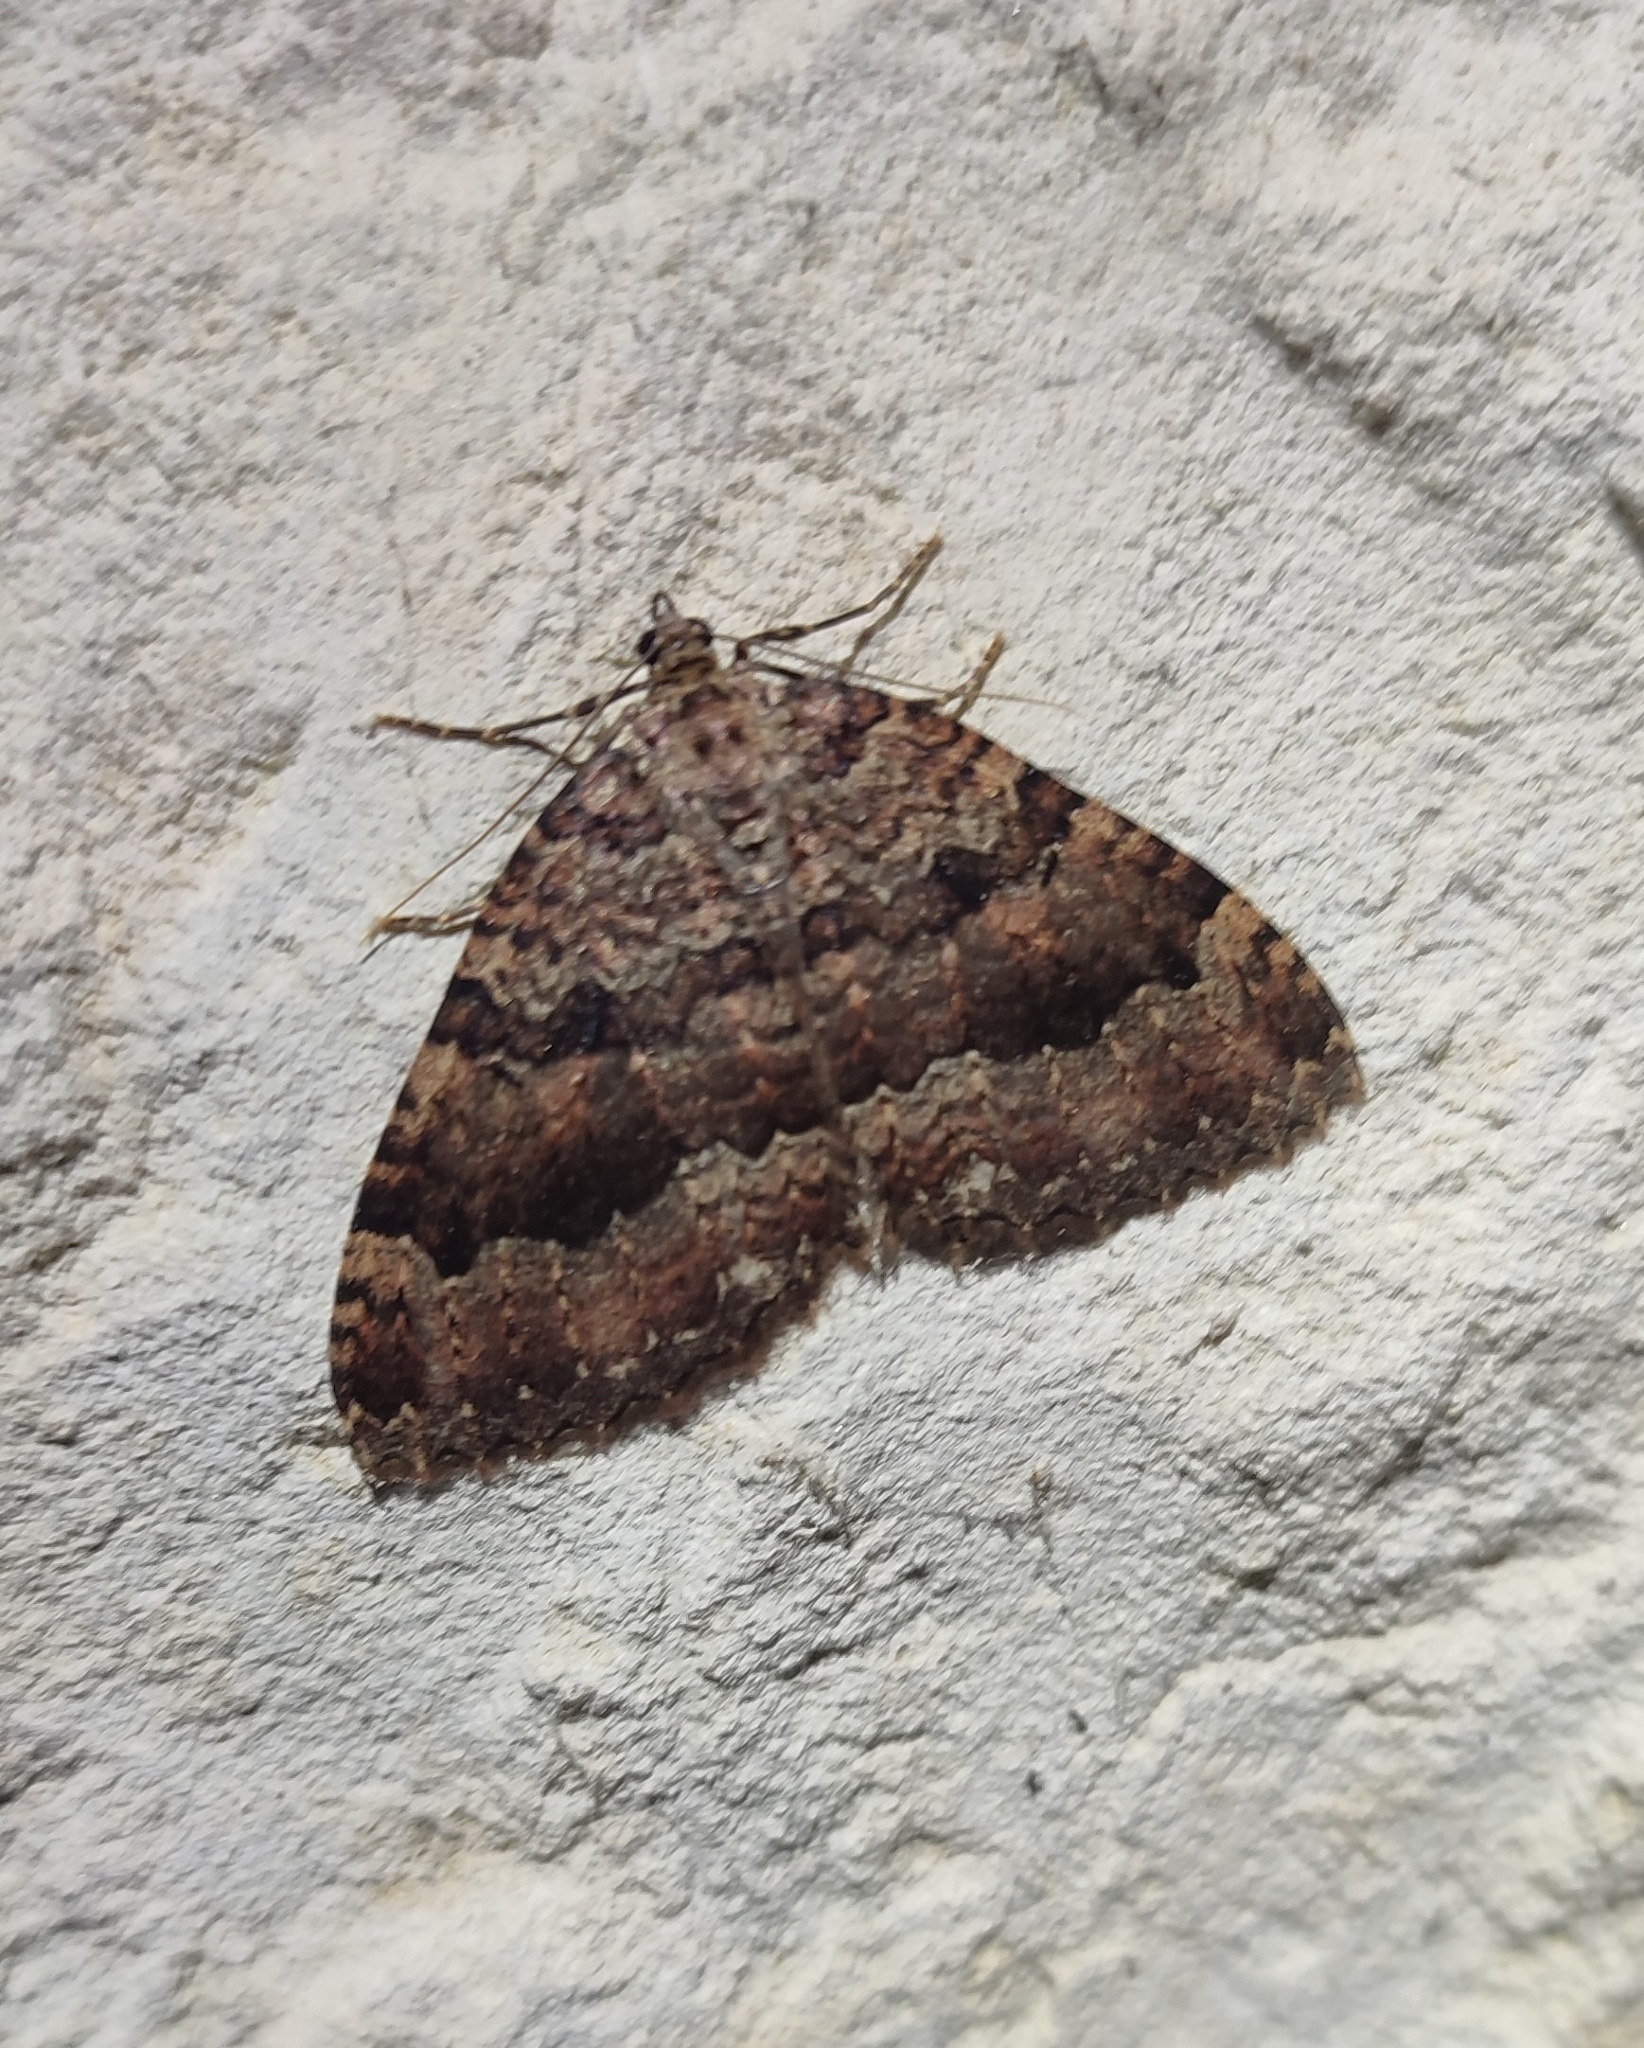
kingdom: Animalia
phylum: Arthropoda
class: Insecta
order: Lepidoptera
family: Geometridae
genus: Triphosa
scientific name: Triphosa dubitata
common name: Tissue
